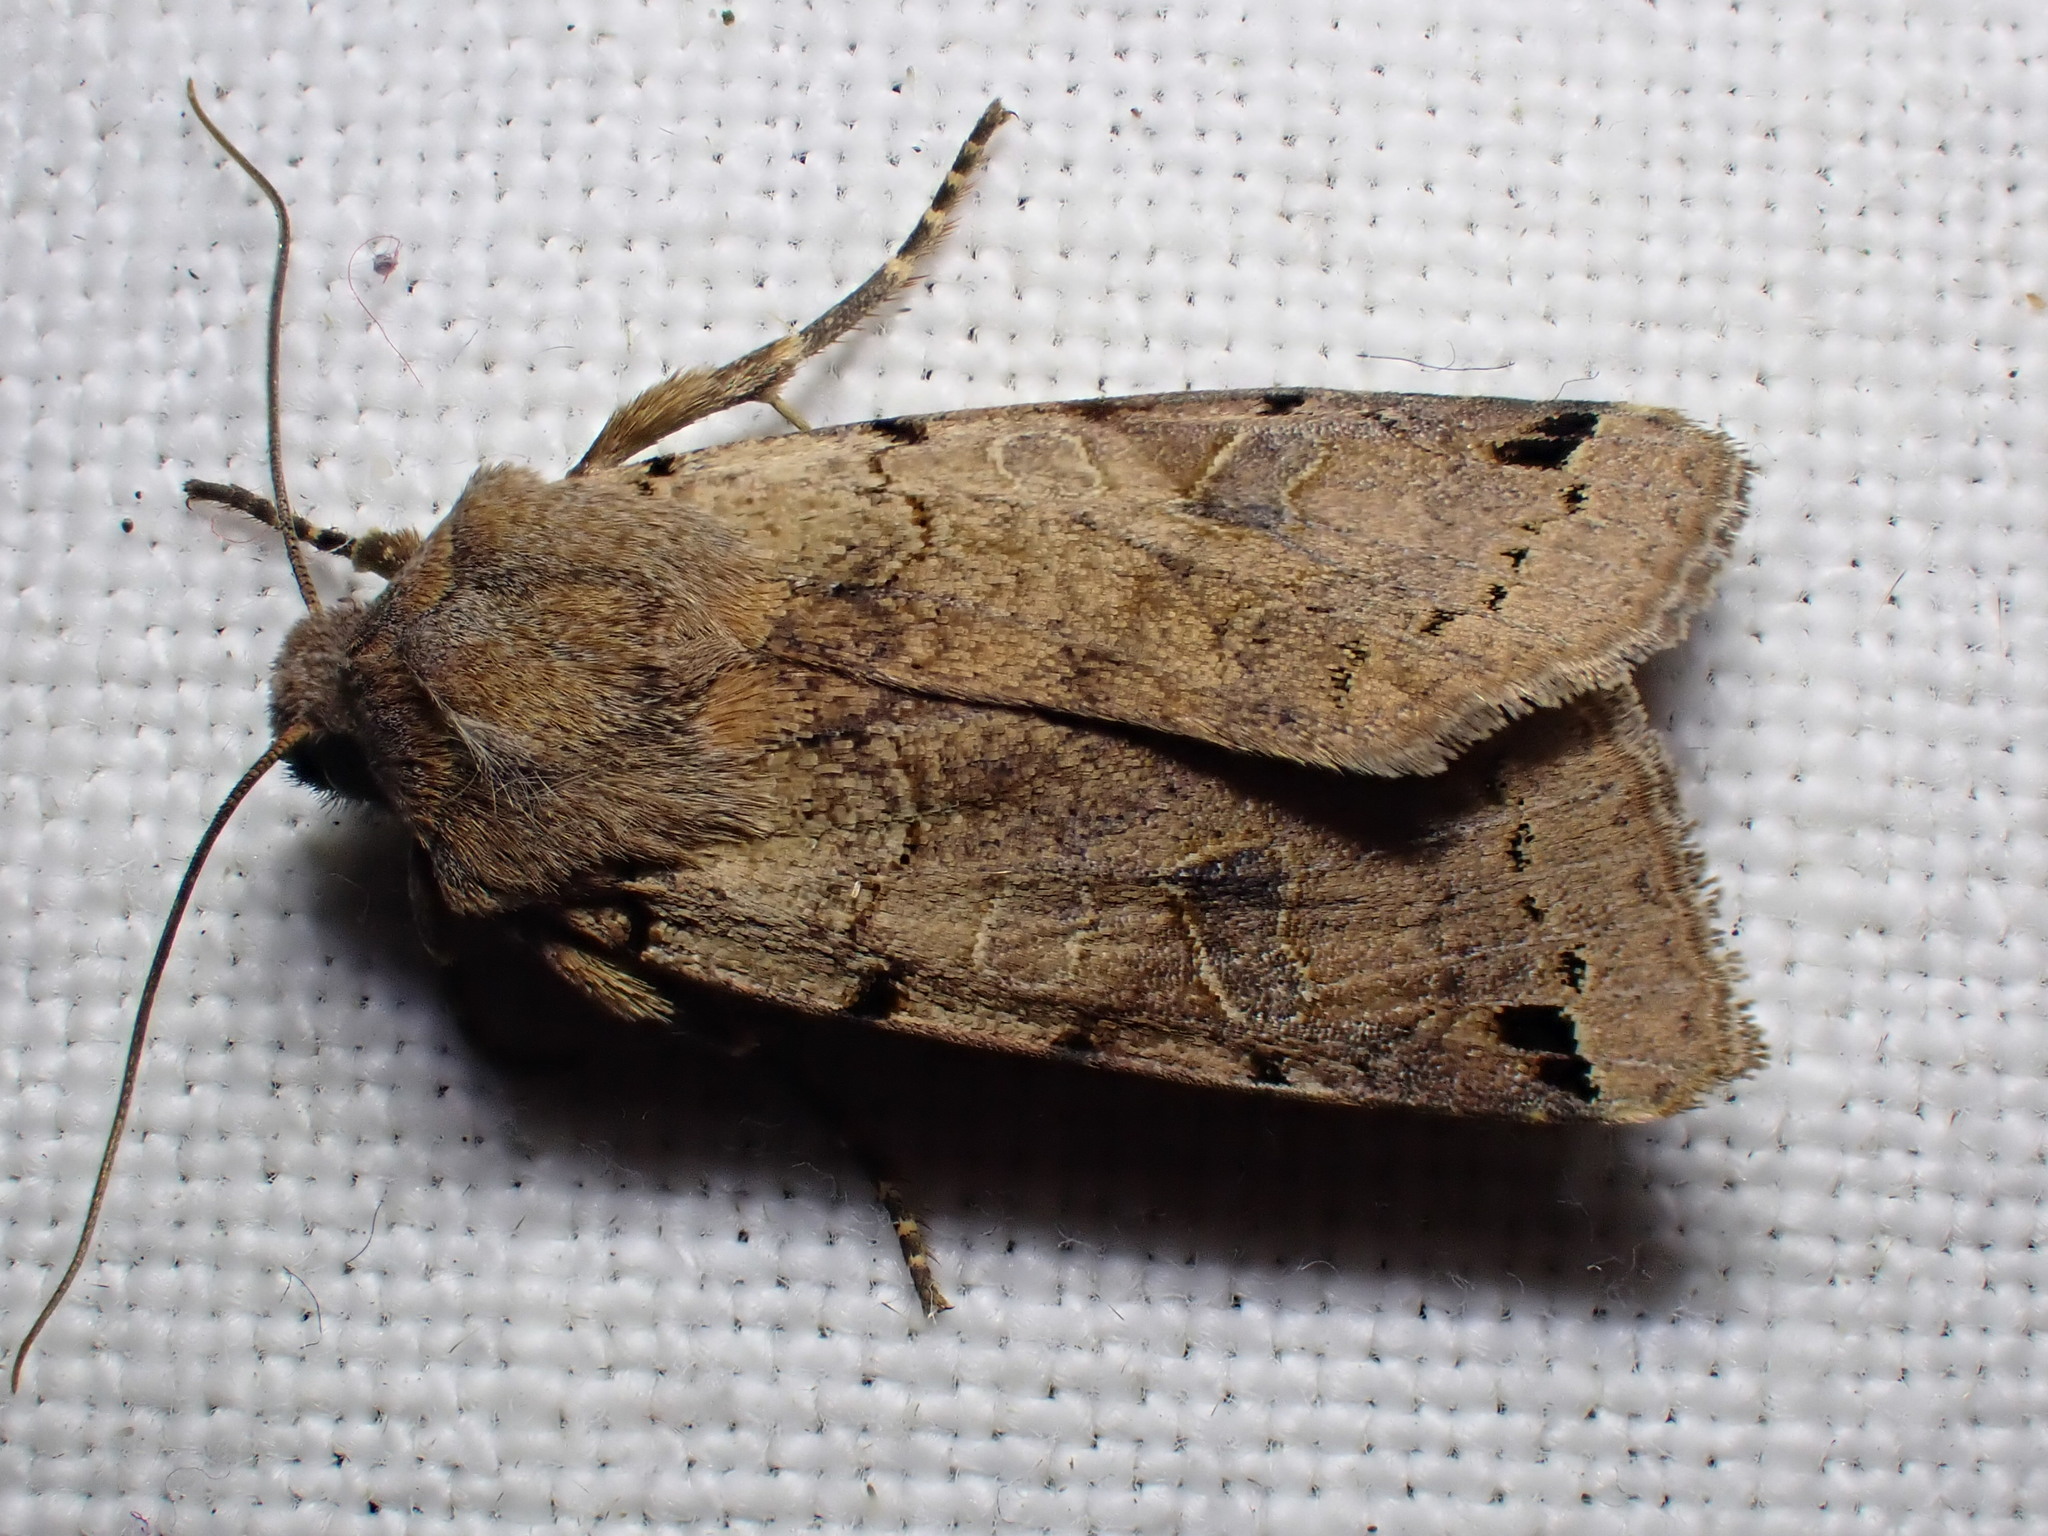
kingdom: Animalia
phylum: Arthropoda
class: Insecta
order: Lepidoptera
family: Noctuidae
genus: Agrochola
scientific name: Agrochola litura
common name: Brown-spot pinion
